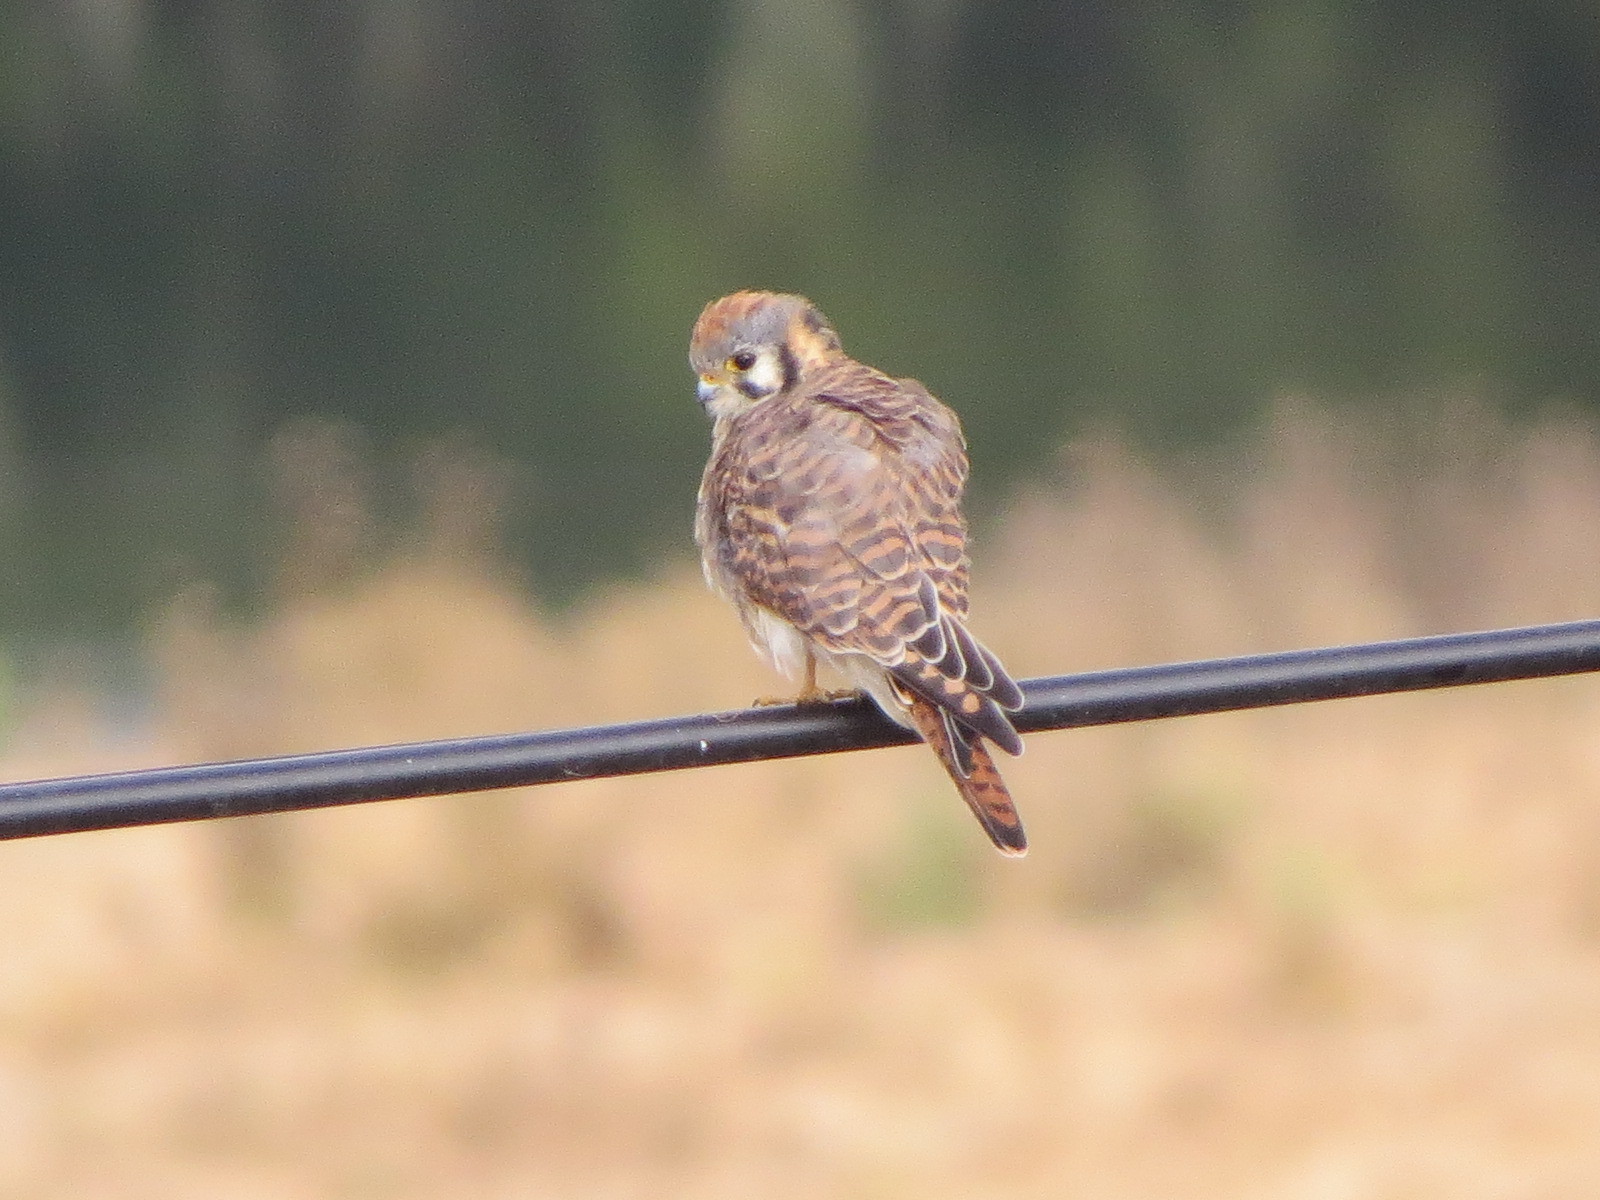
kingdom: Animalia
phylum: Chordata
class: Aves
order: Falconiformes
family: Falconidae
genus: Falco
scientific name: Falco sparverius
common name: American kestrel
